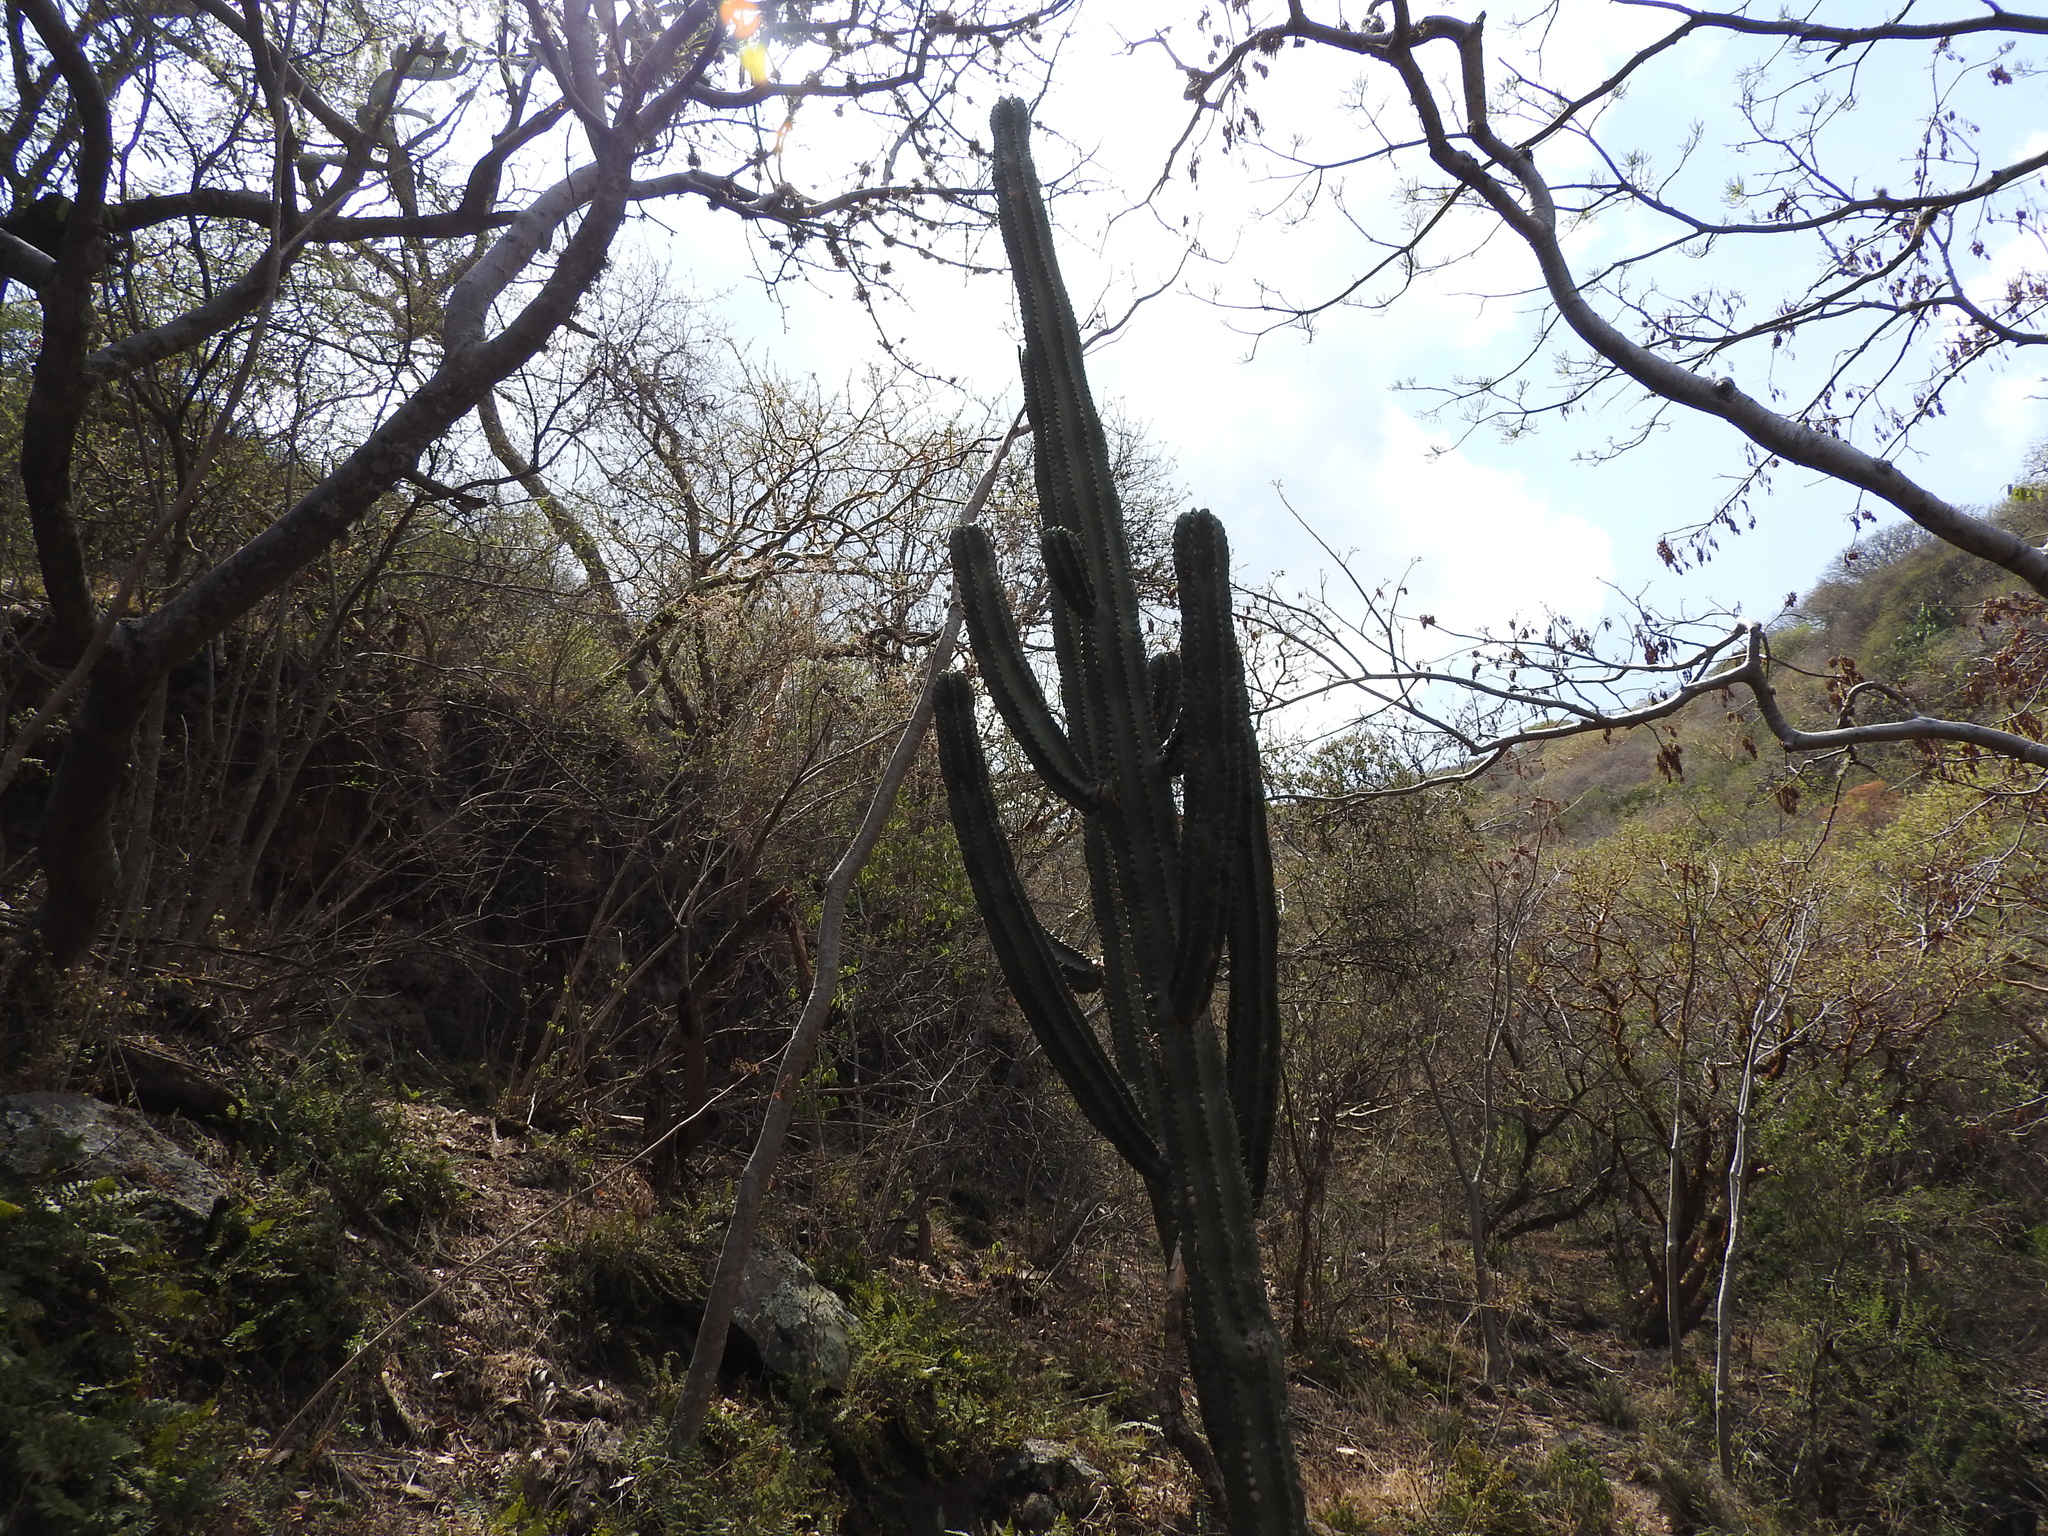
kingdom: Plantae
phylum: Tracheophyta
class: Magnoliopsida
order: Caryophyllales
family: Cactaceae
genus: Stenocereus
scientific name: Stenocereus queretaroensis
